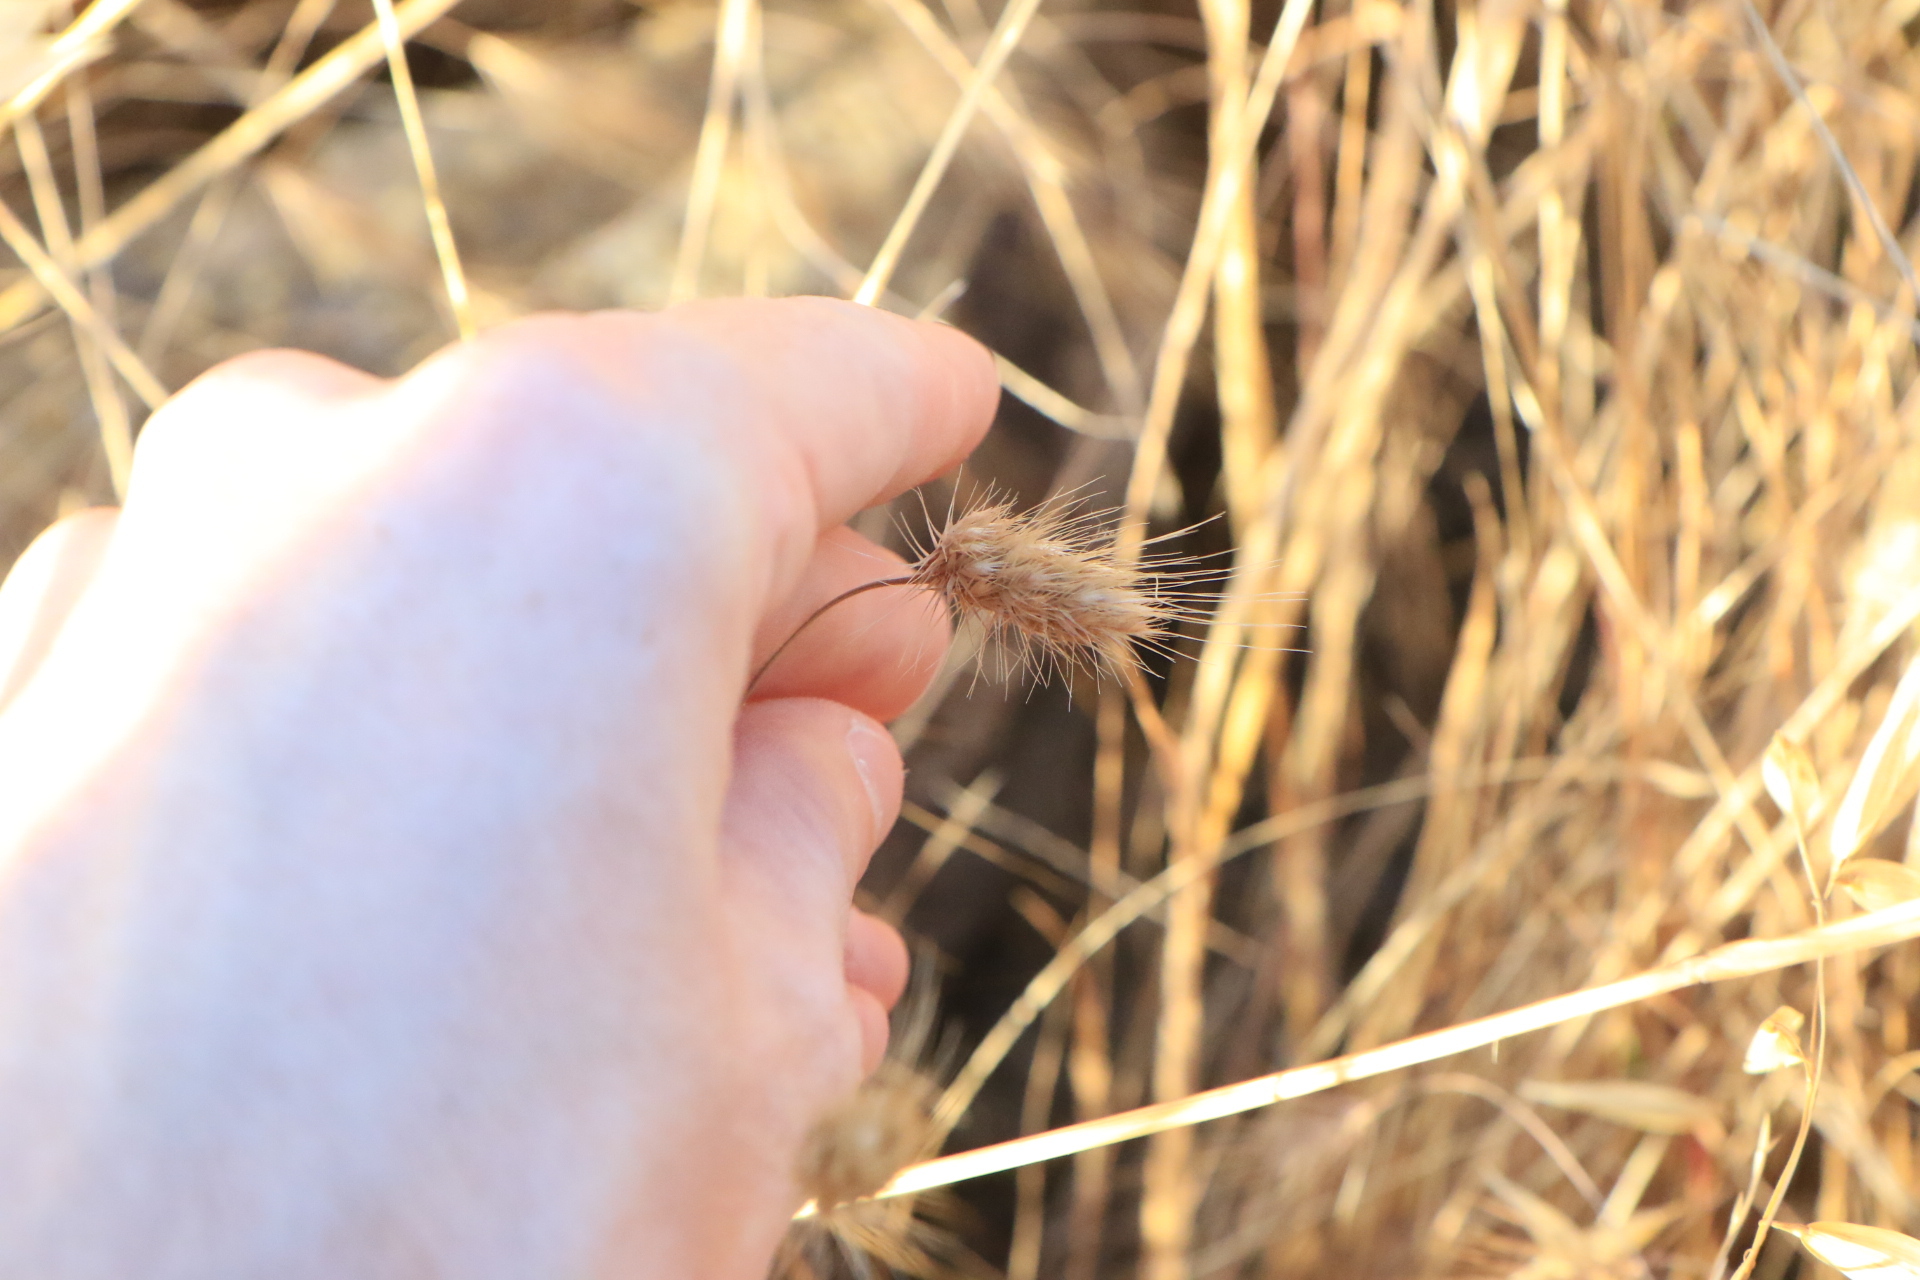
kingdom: Plantae
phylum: Tracheophyta
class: Liliopsida
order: Poales
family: Poaceae
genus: Cynosurus
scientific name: Cynosurus echinatus
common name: Rough dog's-tail
